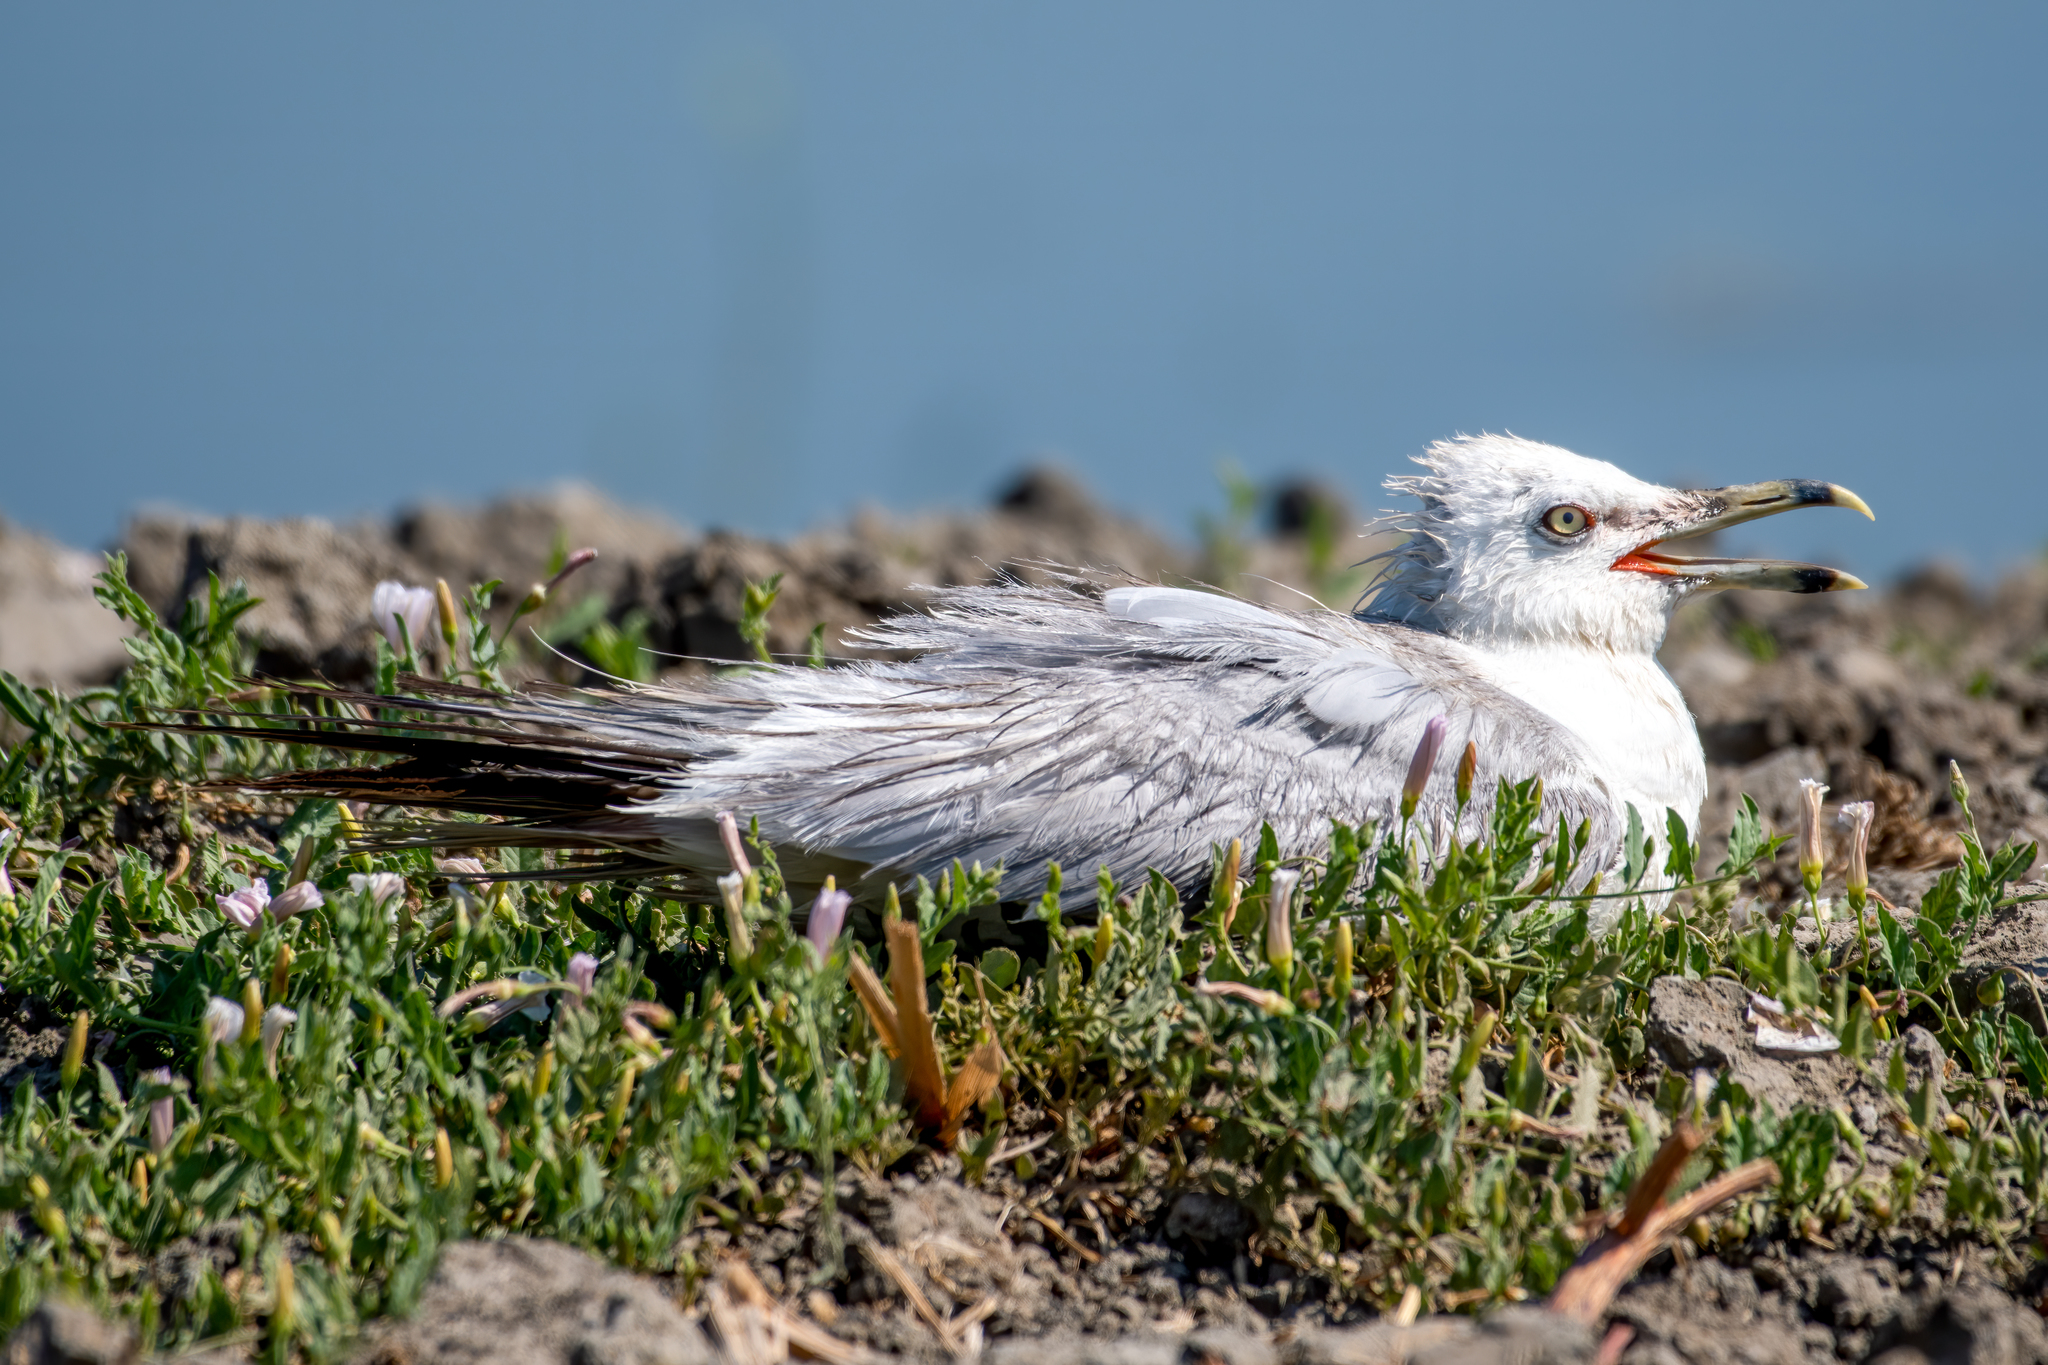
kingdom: Animalia
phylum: Chordata
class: Aves
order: Charadriiformes
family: Laridae
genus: Larus
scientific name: Larus delawarensis
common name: Ring-billed gull
